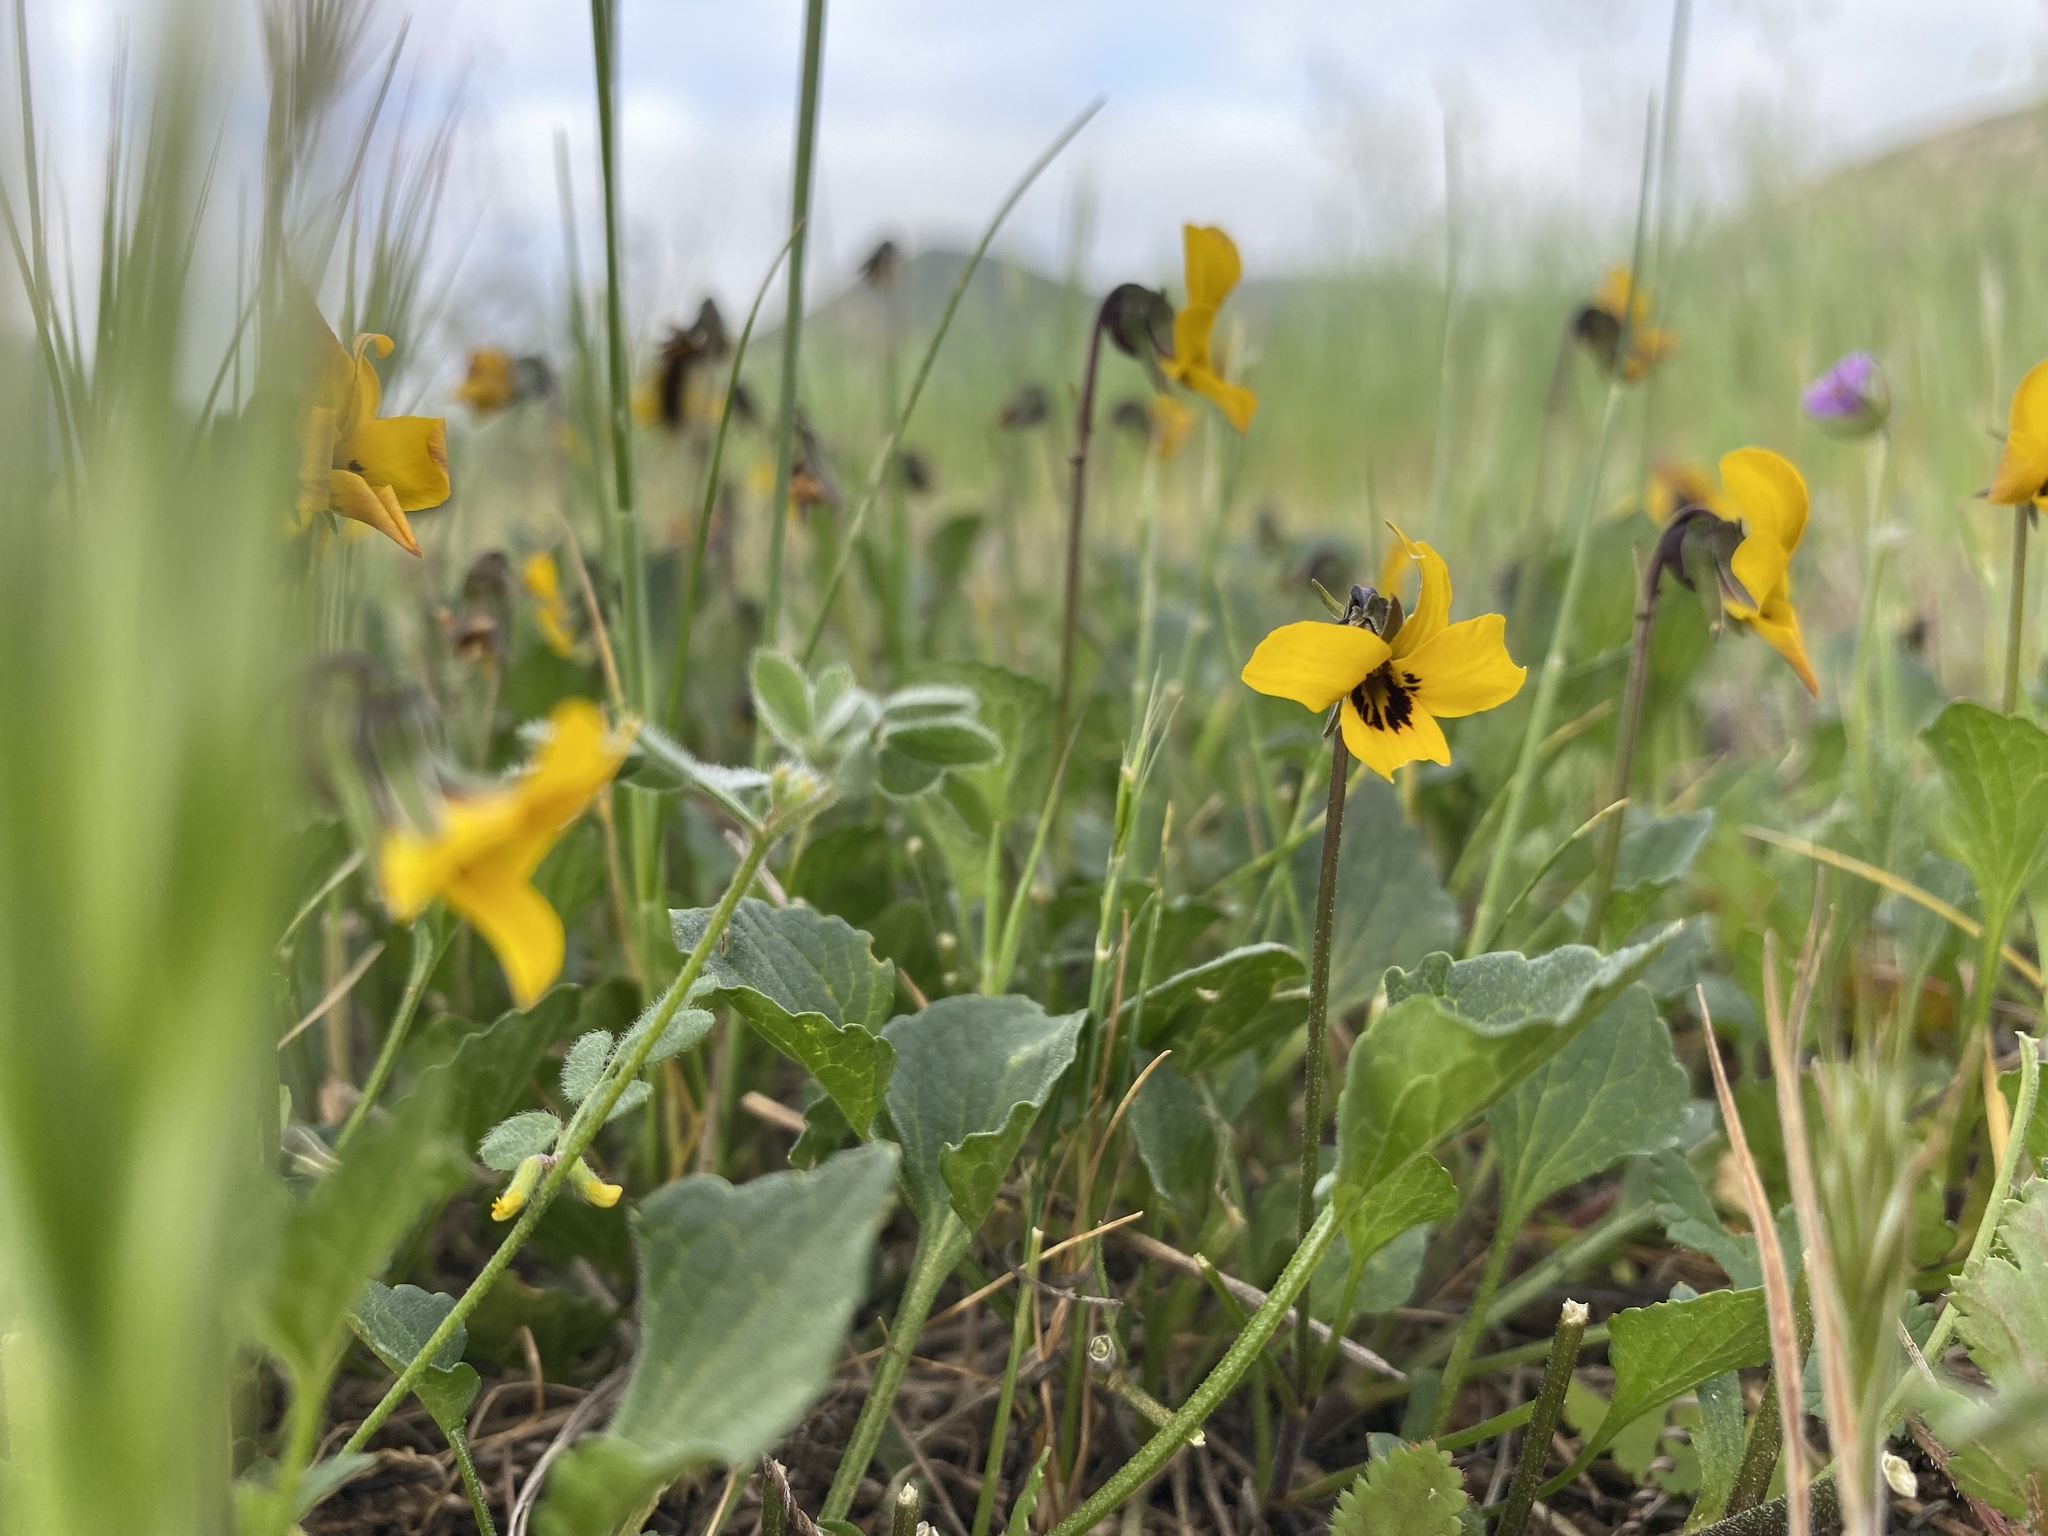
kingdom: Plantae
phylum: Tracheophyta
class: Magnoliopsida
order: Malpighiales
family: Violaceae
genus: Viola
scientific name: Viola pedunculata
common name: California golden violet
